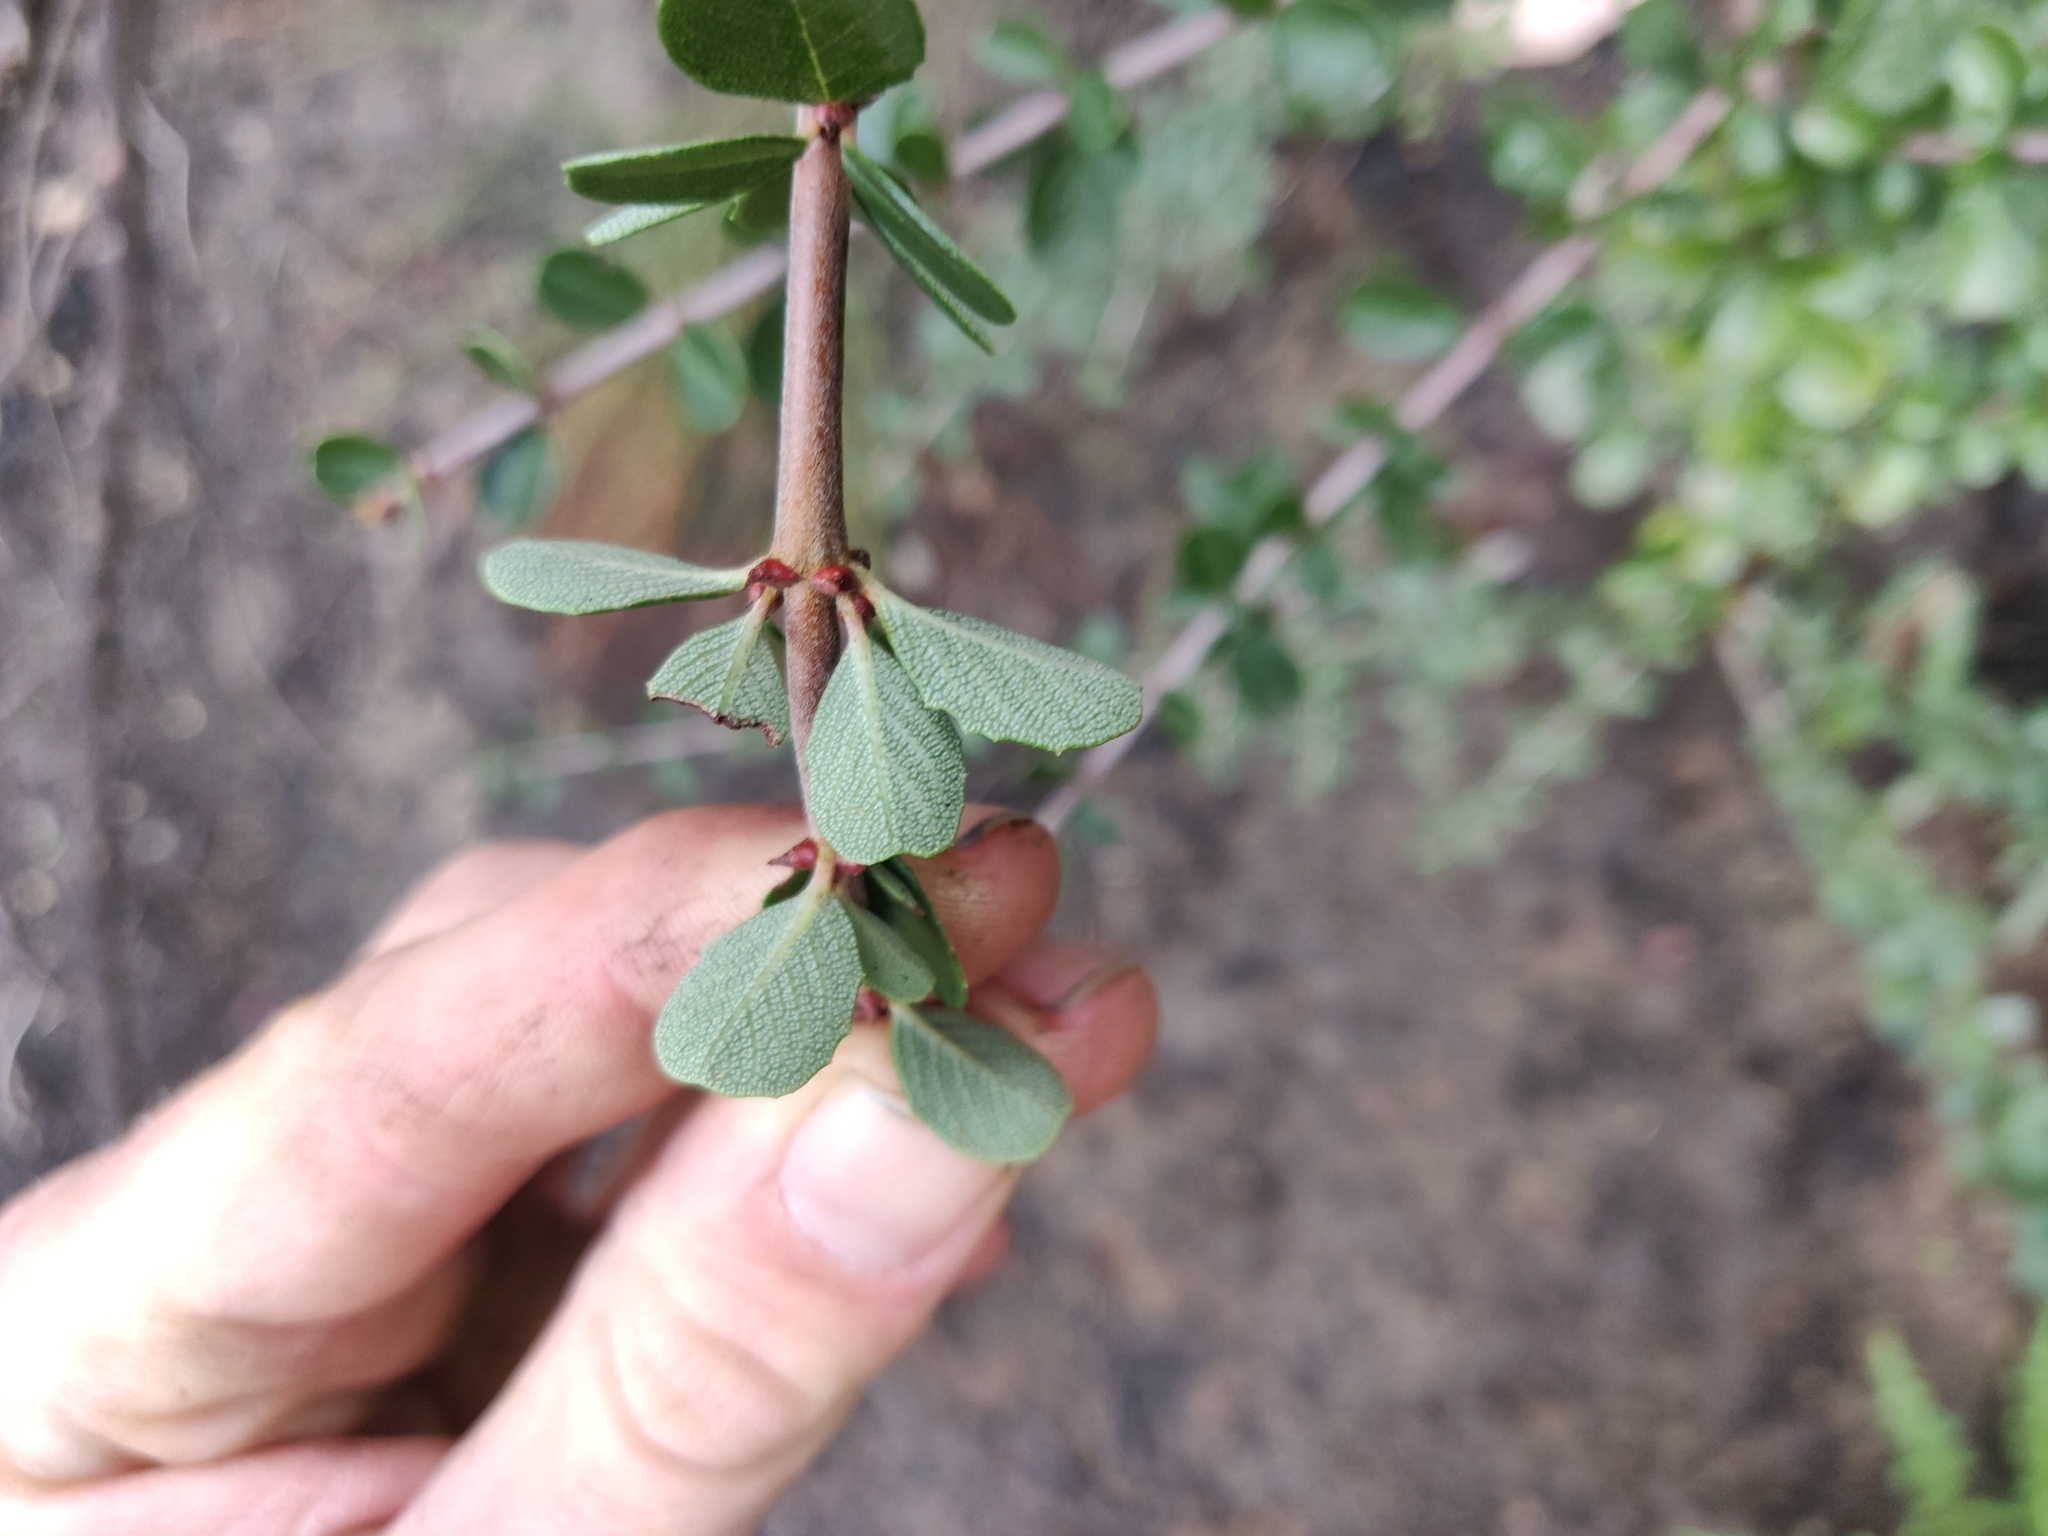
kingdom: Plantae
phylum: Tracheophyta
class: Magnoliopsida
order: Rosales
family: Rhamnaceae
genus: Ceanothus
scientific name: Ceanothus cuneatus
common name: Cuneate ceanothus
